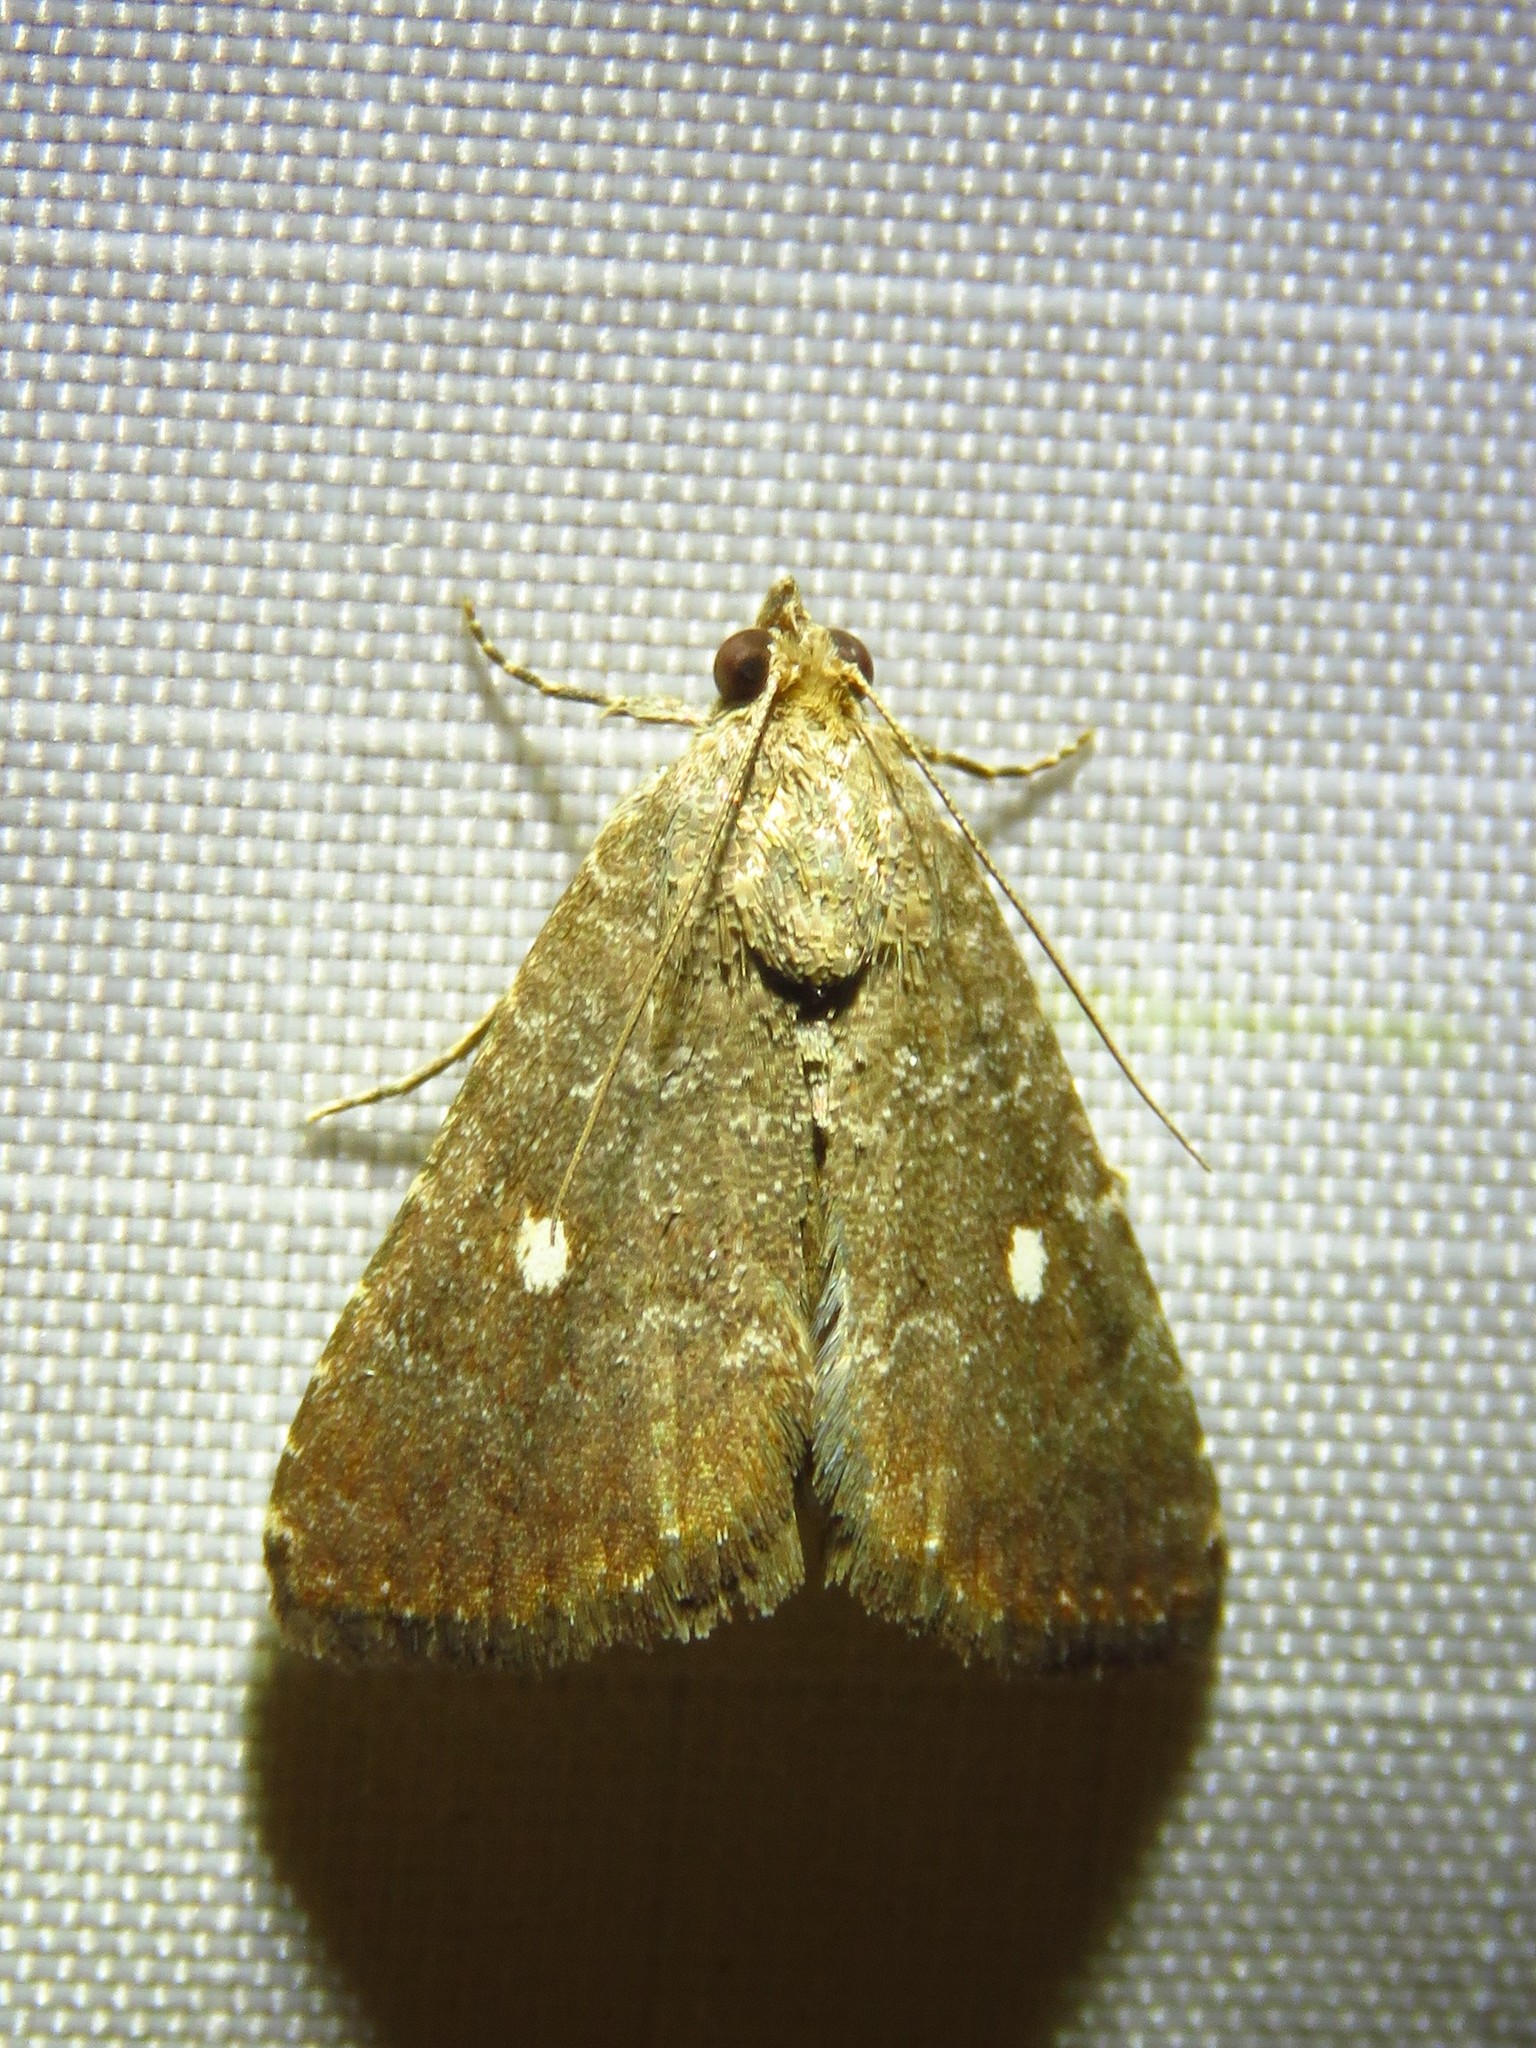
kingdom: Animalia
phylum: Arthropoda
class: Insecta
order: Lepidoptera
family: Noctuidae
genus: Amyna
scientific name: Amyna stricta
